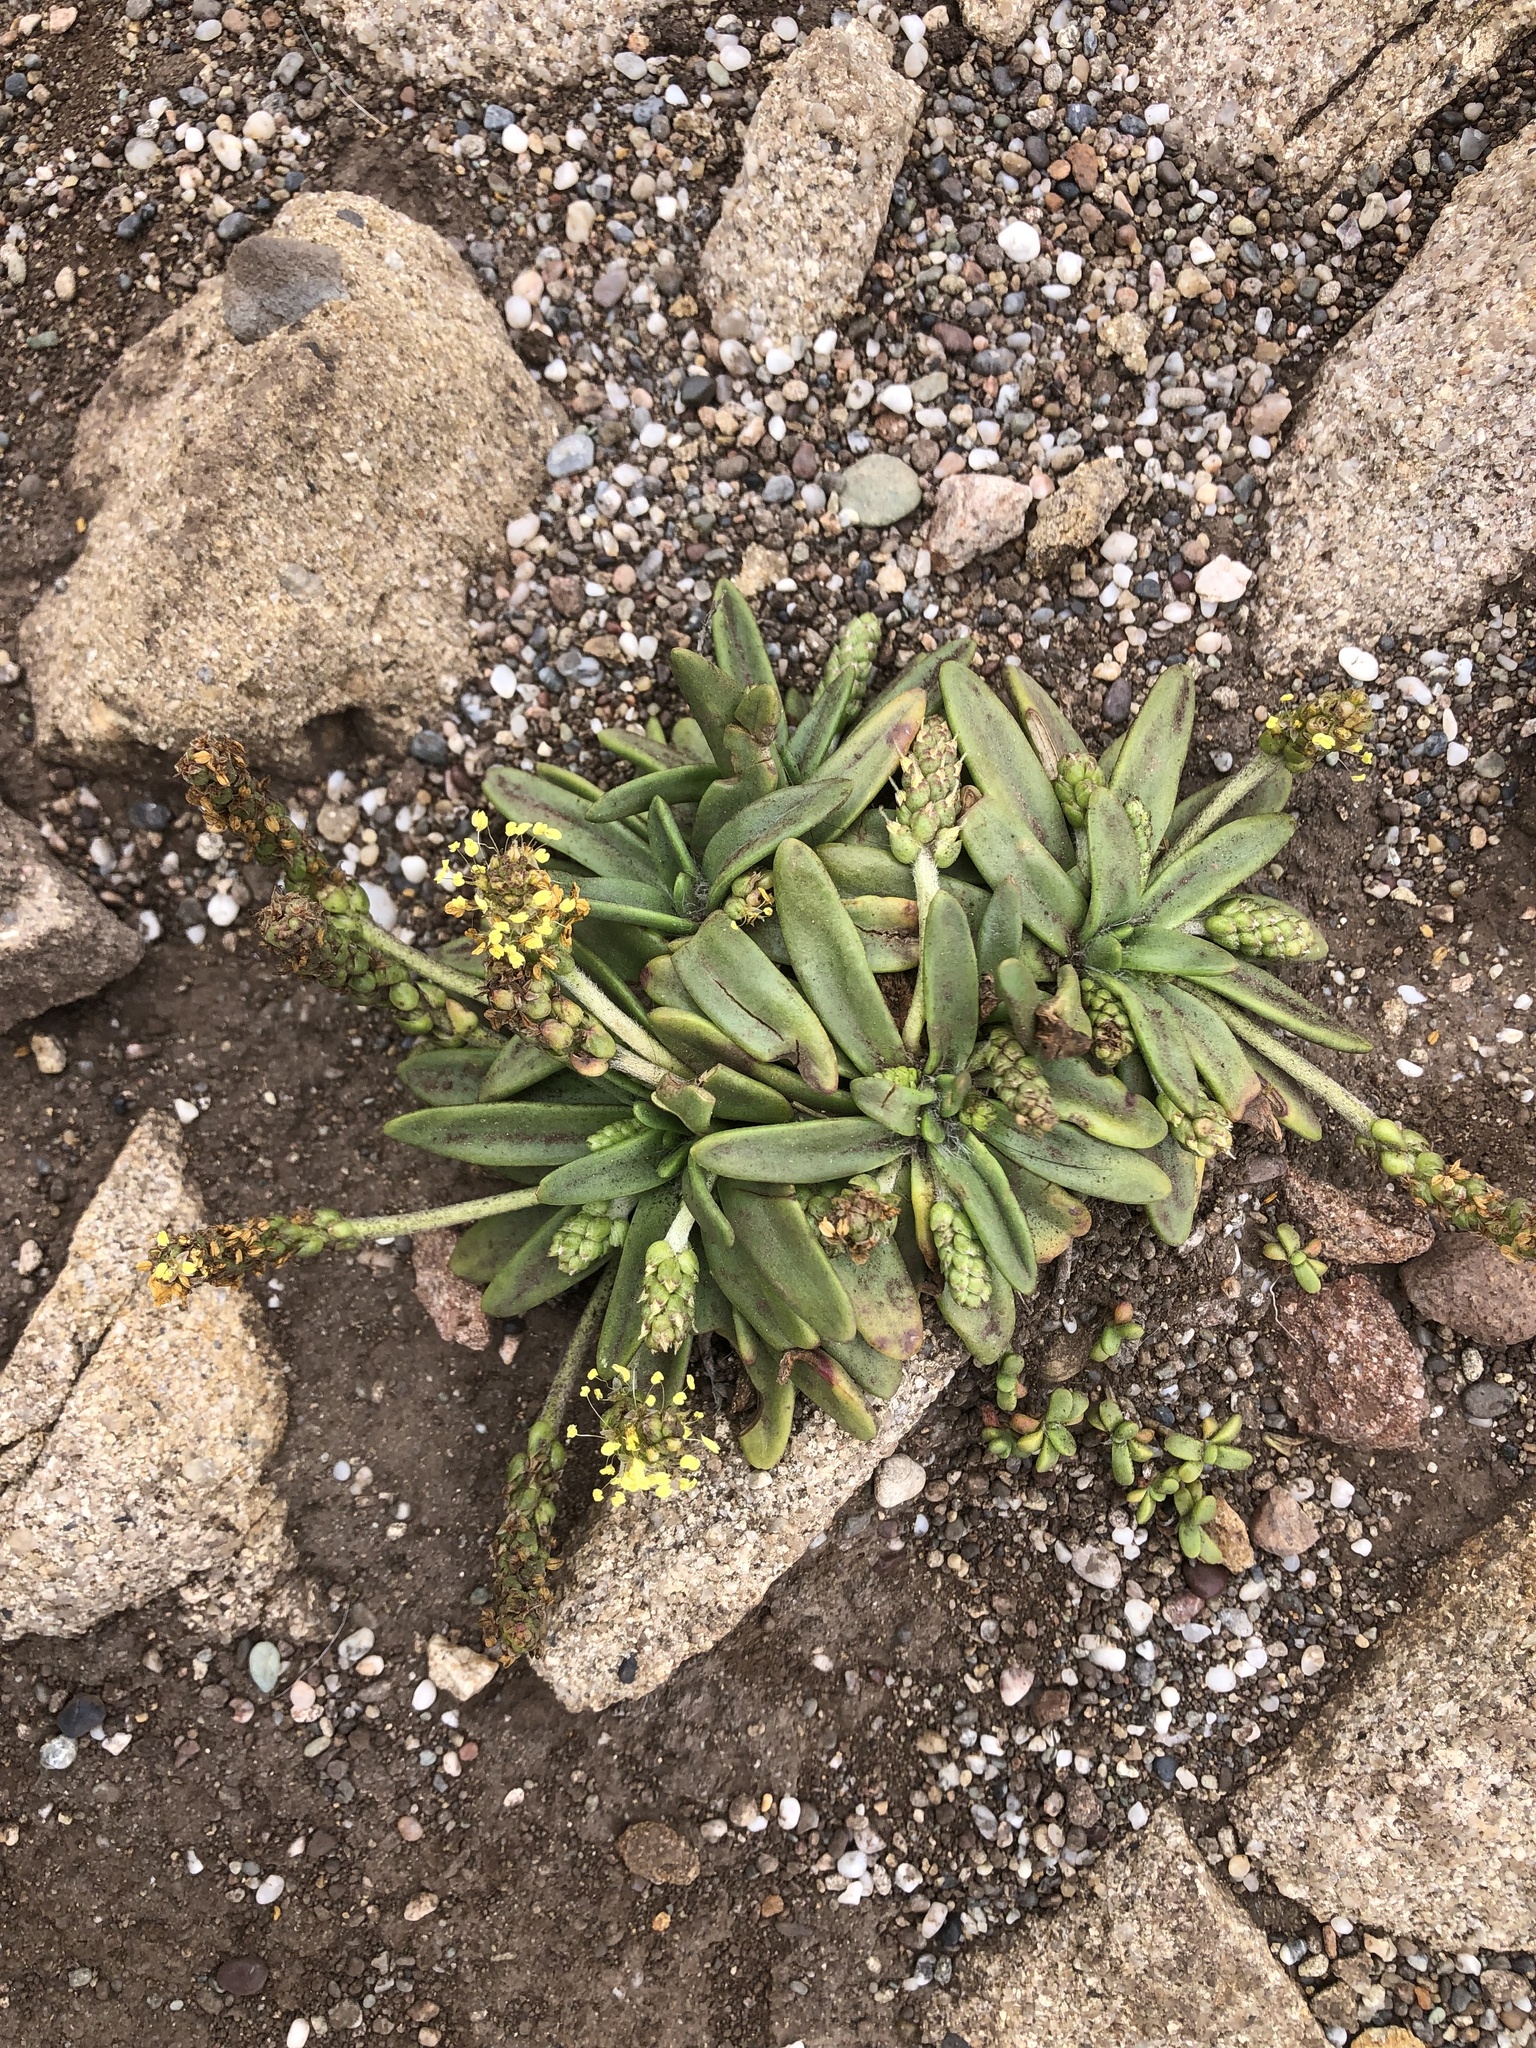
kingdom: Plantae
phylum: Tracheophyta
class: Magnoliopsida
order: Lamiales
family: Plantaginaceae
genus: Plantago
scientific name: Plantago maritima
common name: Sea plantain
